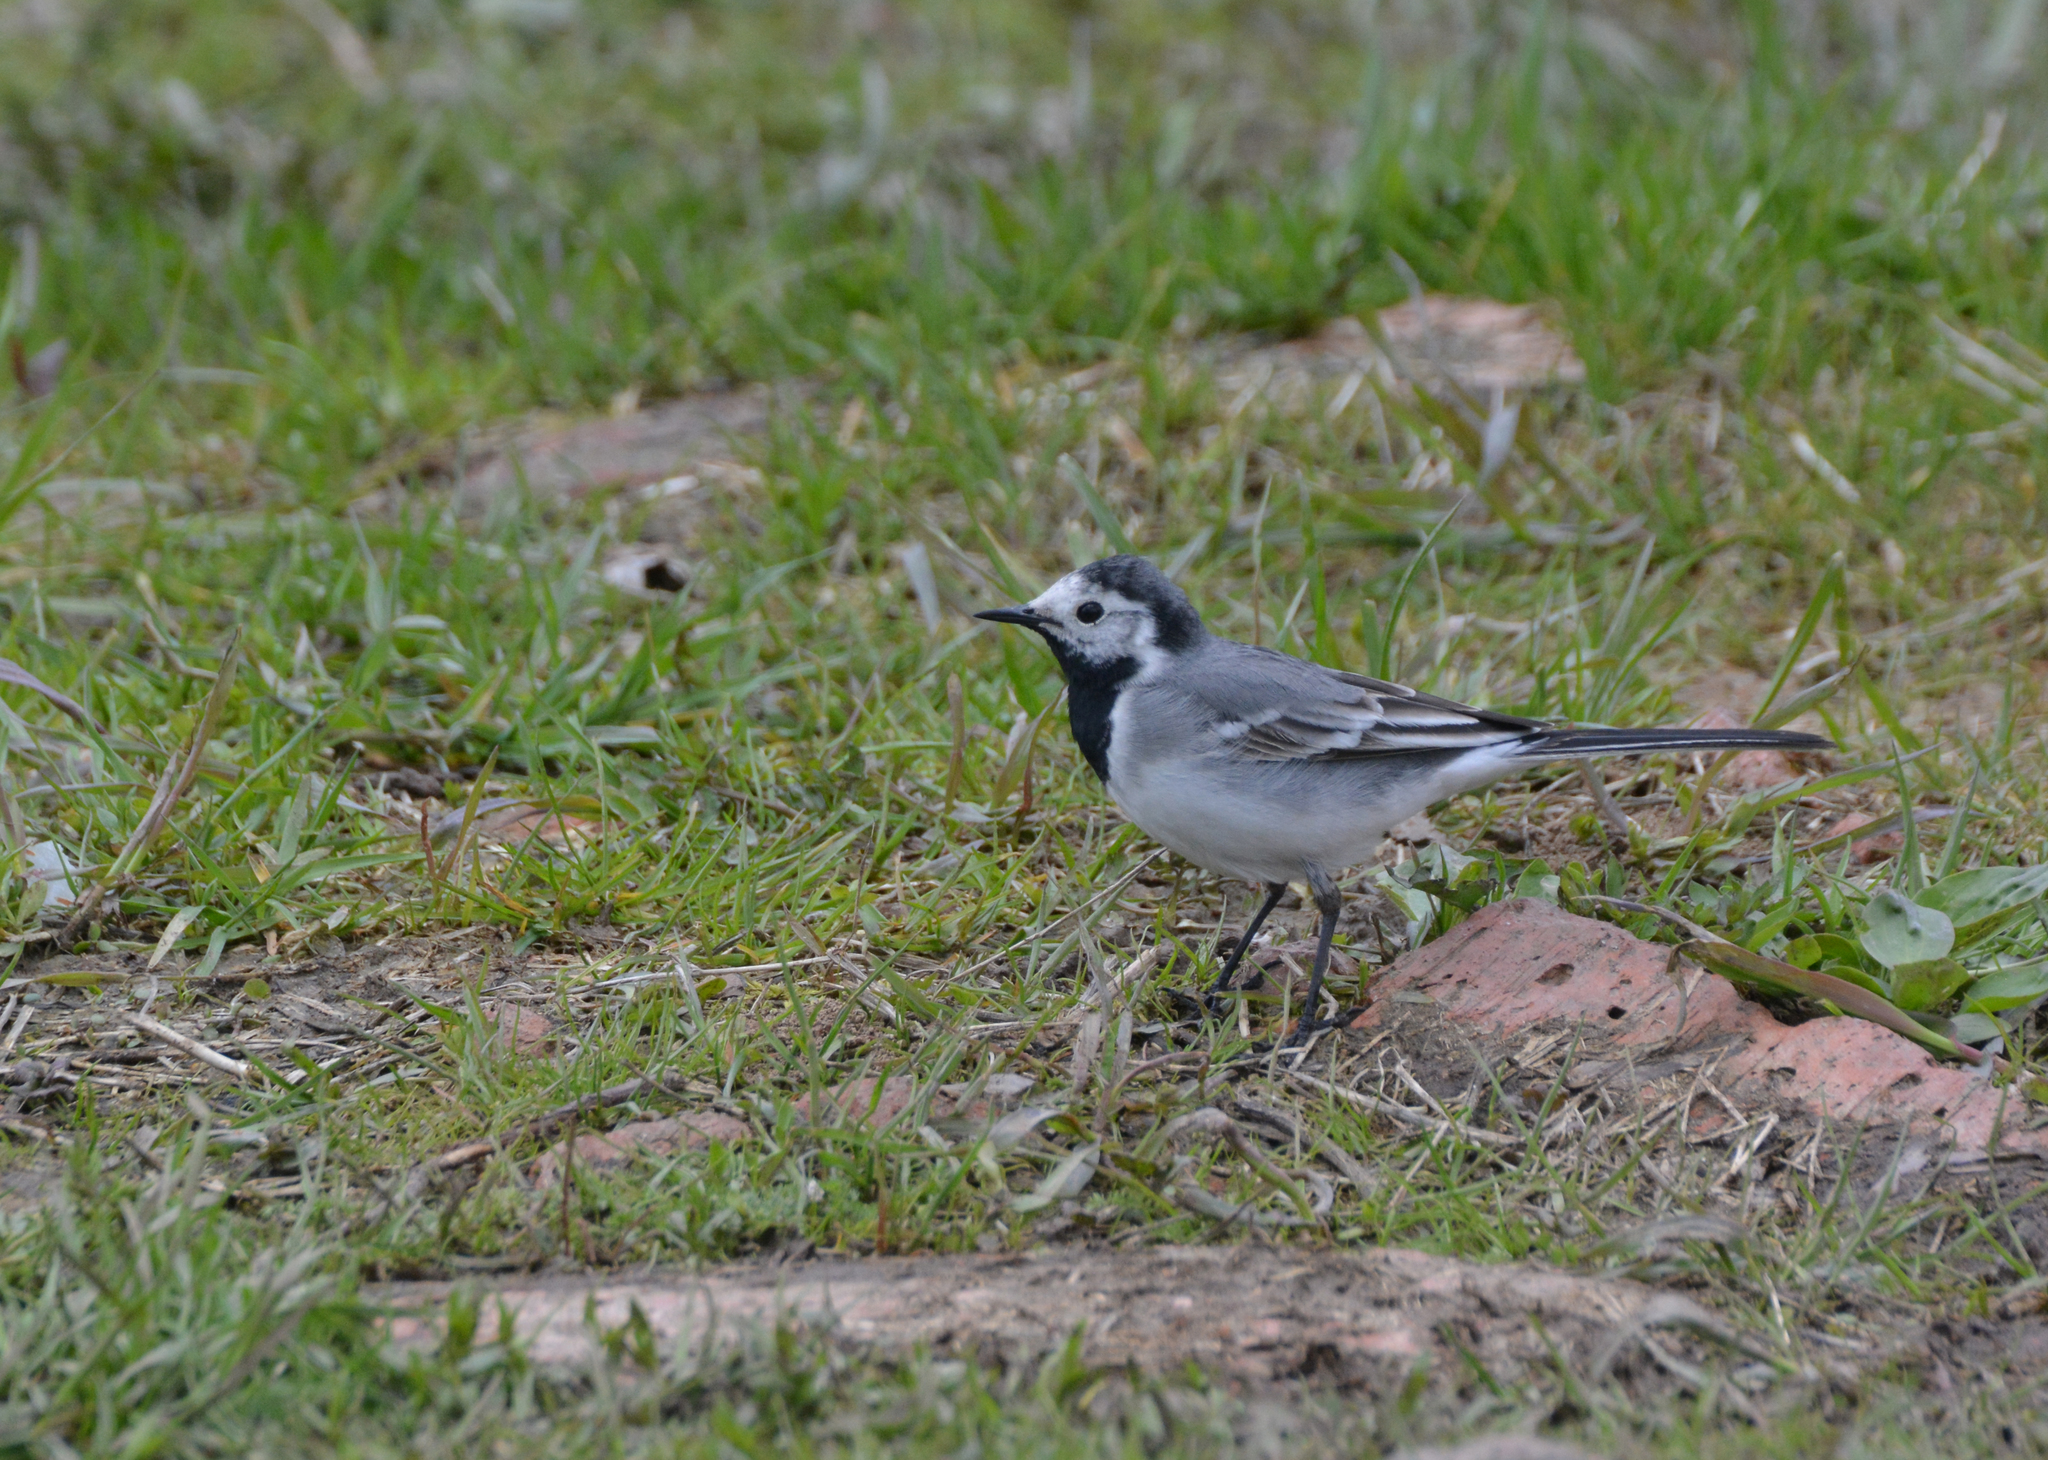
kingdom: Animalia
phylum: Chordata
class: Aves
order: Passeriformes
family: Motacillidae
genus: Motacilla
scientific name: Motacilla alba
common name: White wagtail
